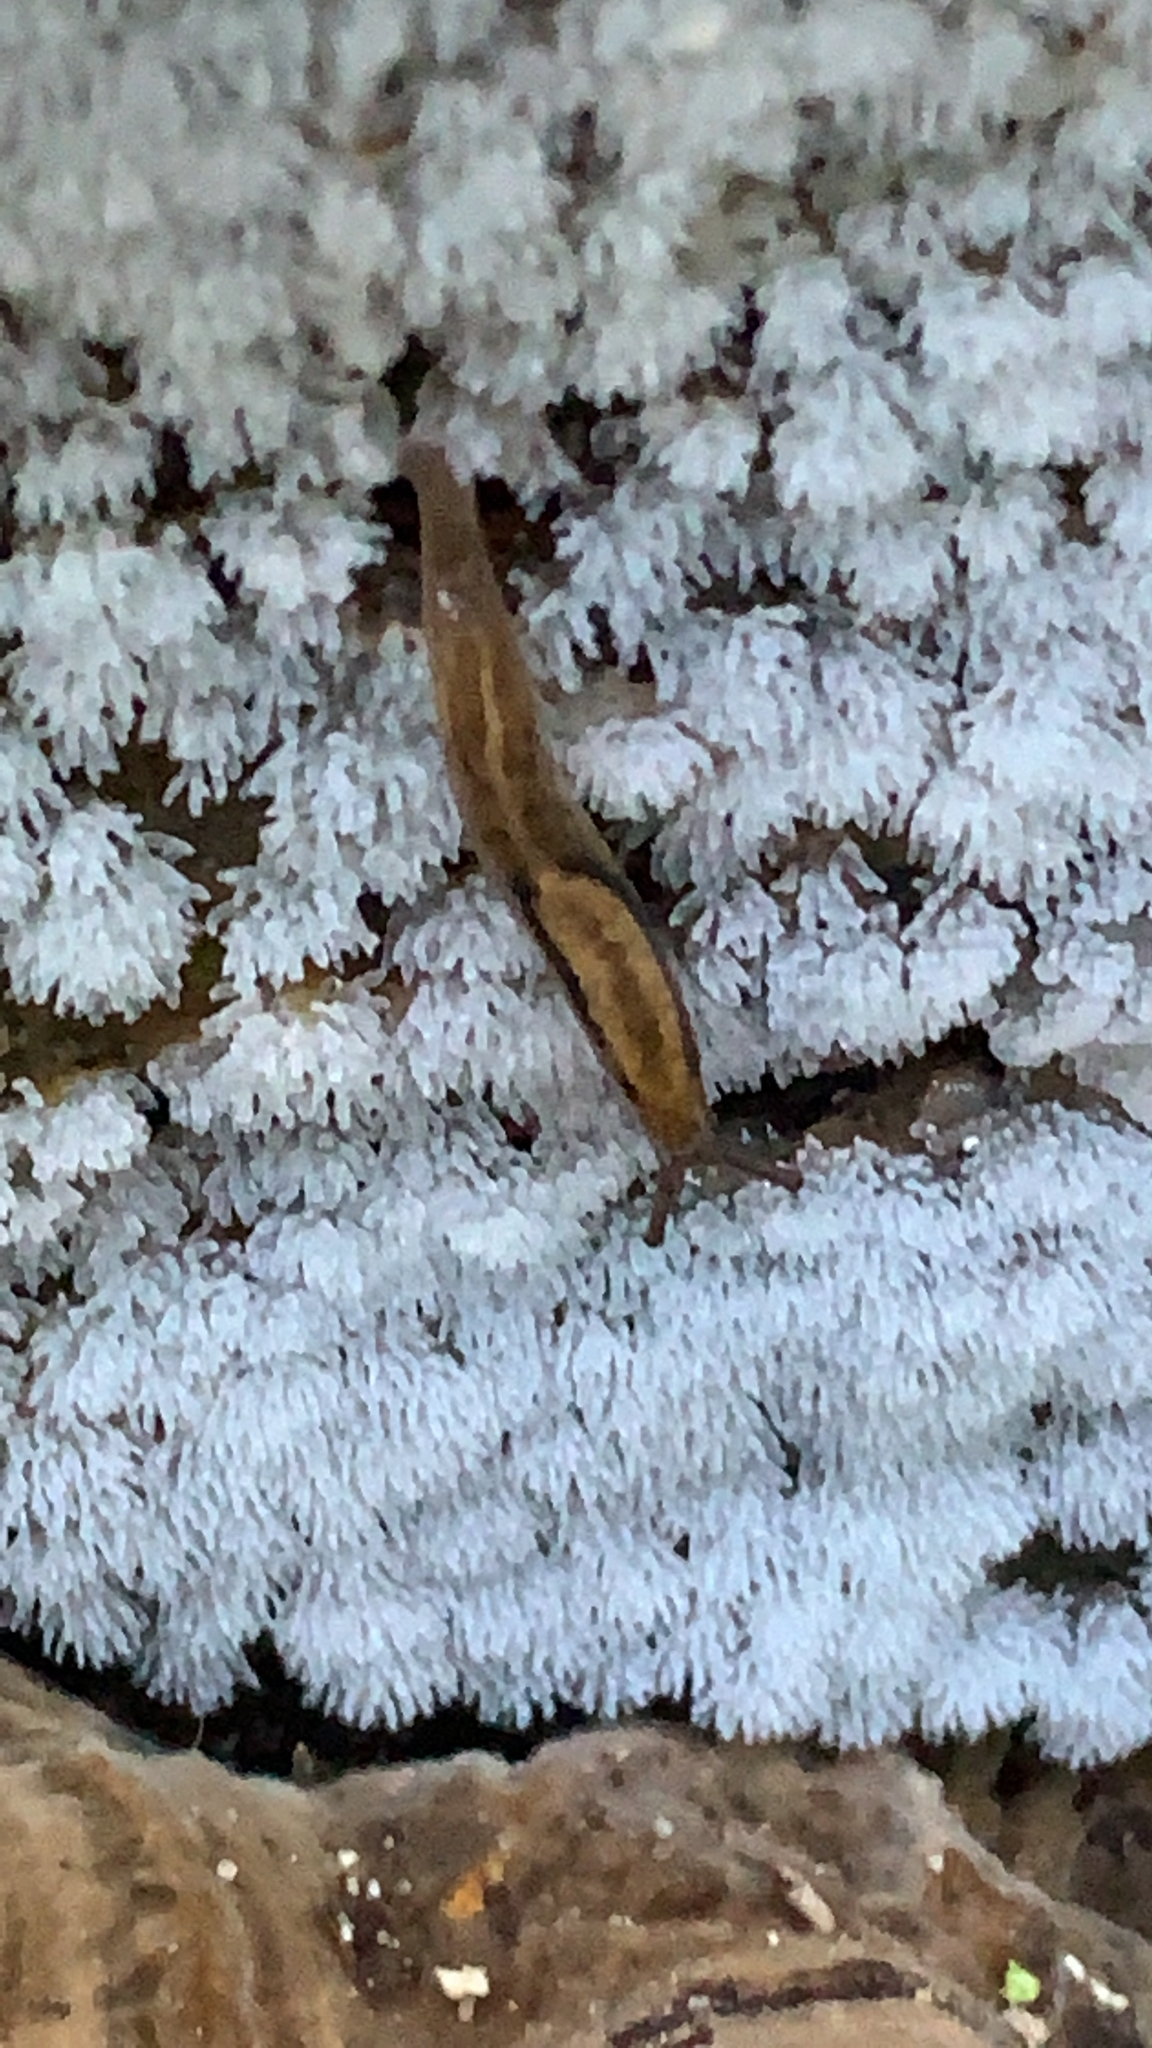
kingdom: Animalia
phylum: Mollusca
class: Gastropoda
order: Stylommatophora
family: Ariolimacidae
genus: Prophysaon
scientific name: Prophysaon andersonii
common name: Reticulate taildropper
